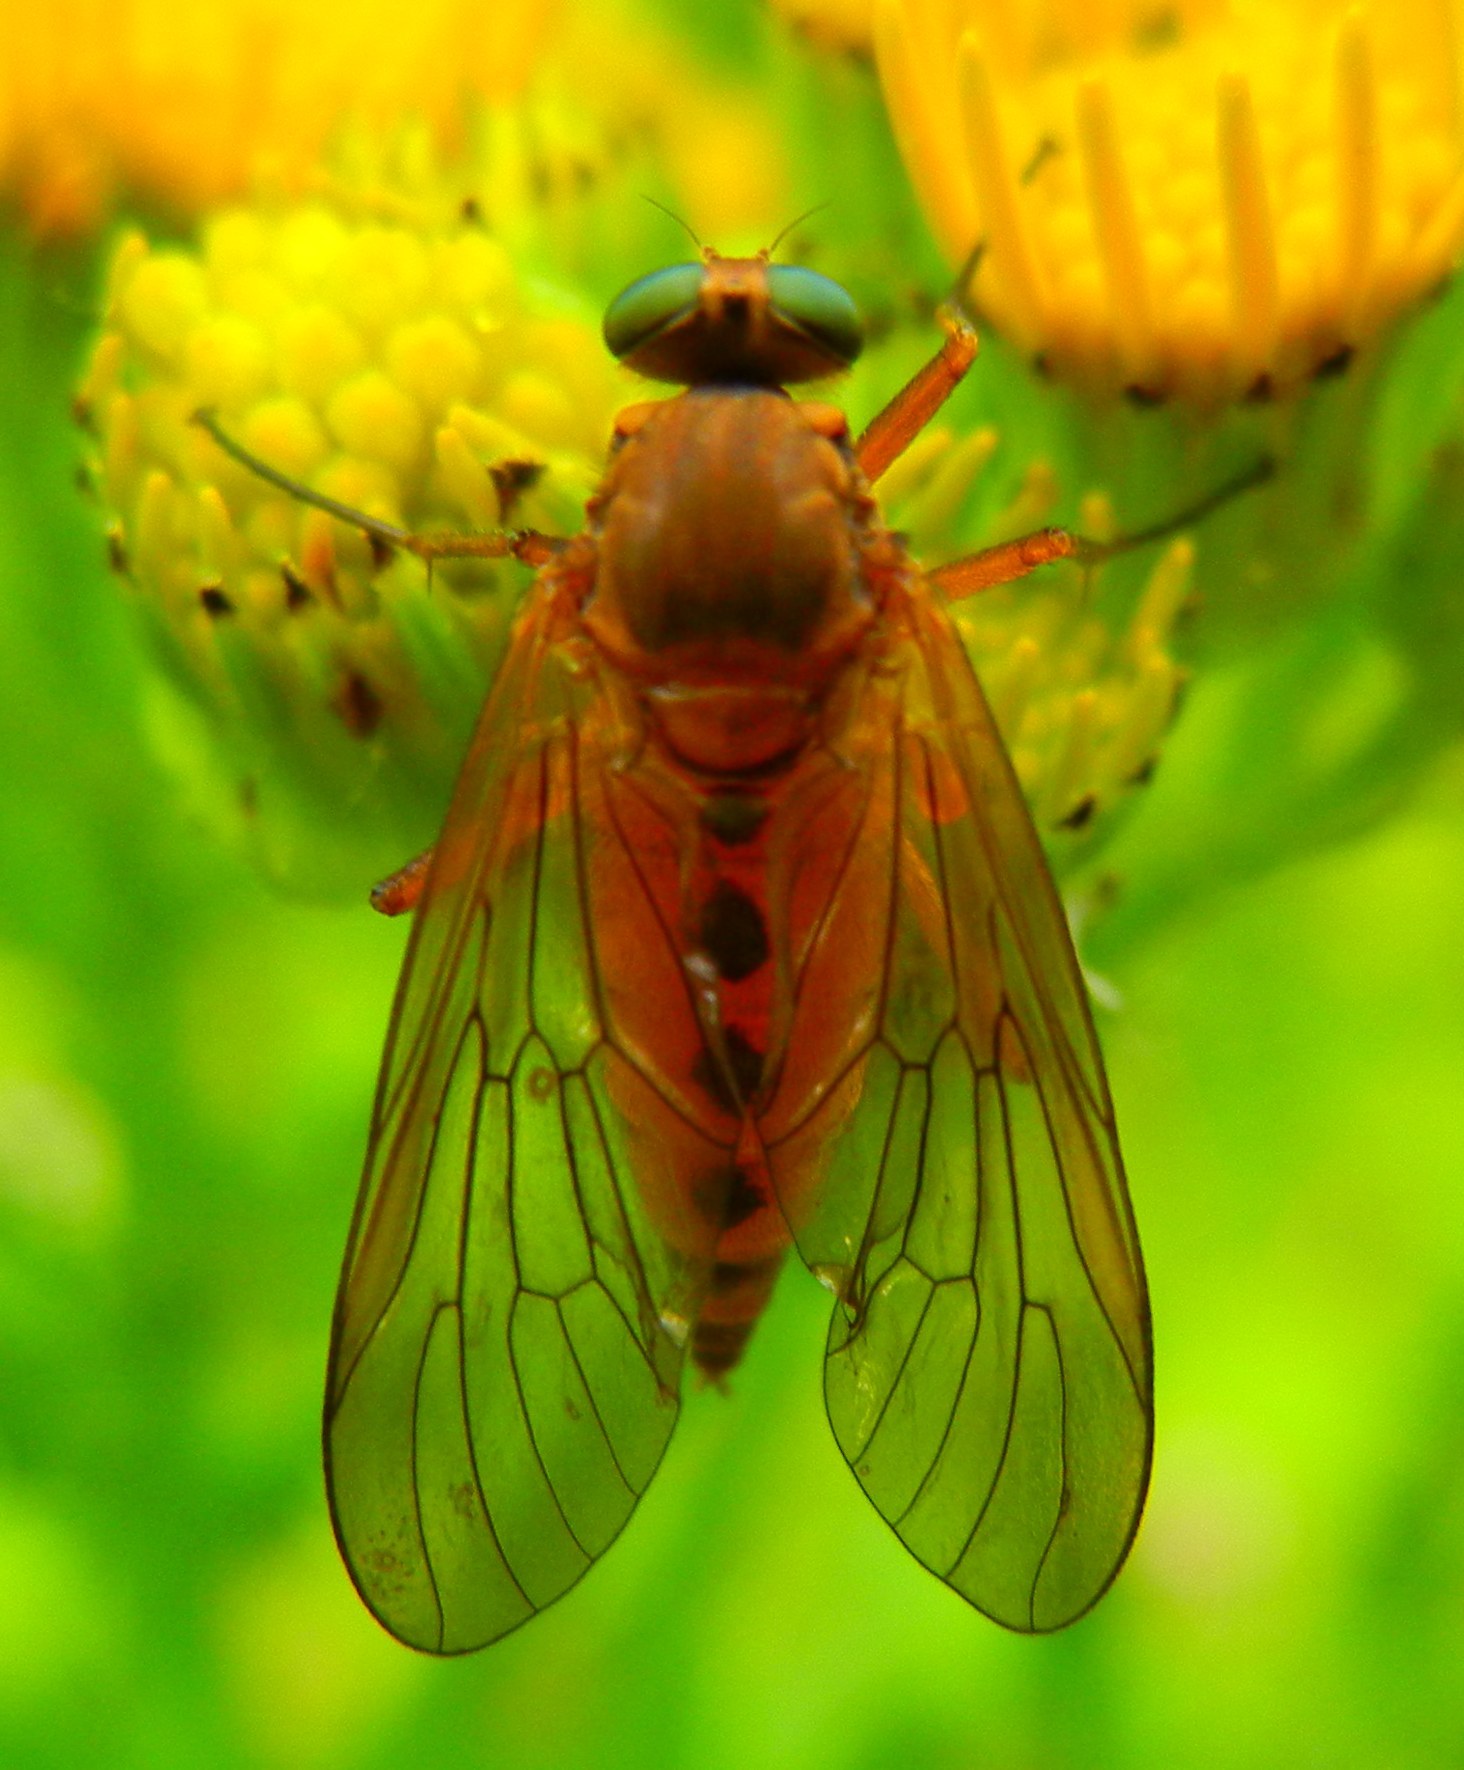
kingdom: Animalia
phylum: Arthropoda
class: Insecta
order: Diptera
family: Rhagionidae
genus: Rhagio
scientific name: Rhagio tringaria
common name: Marsh snipefly
